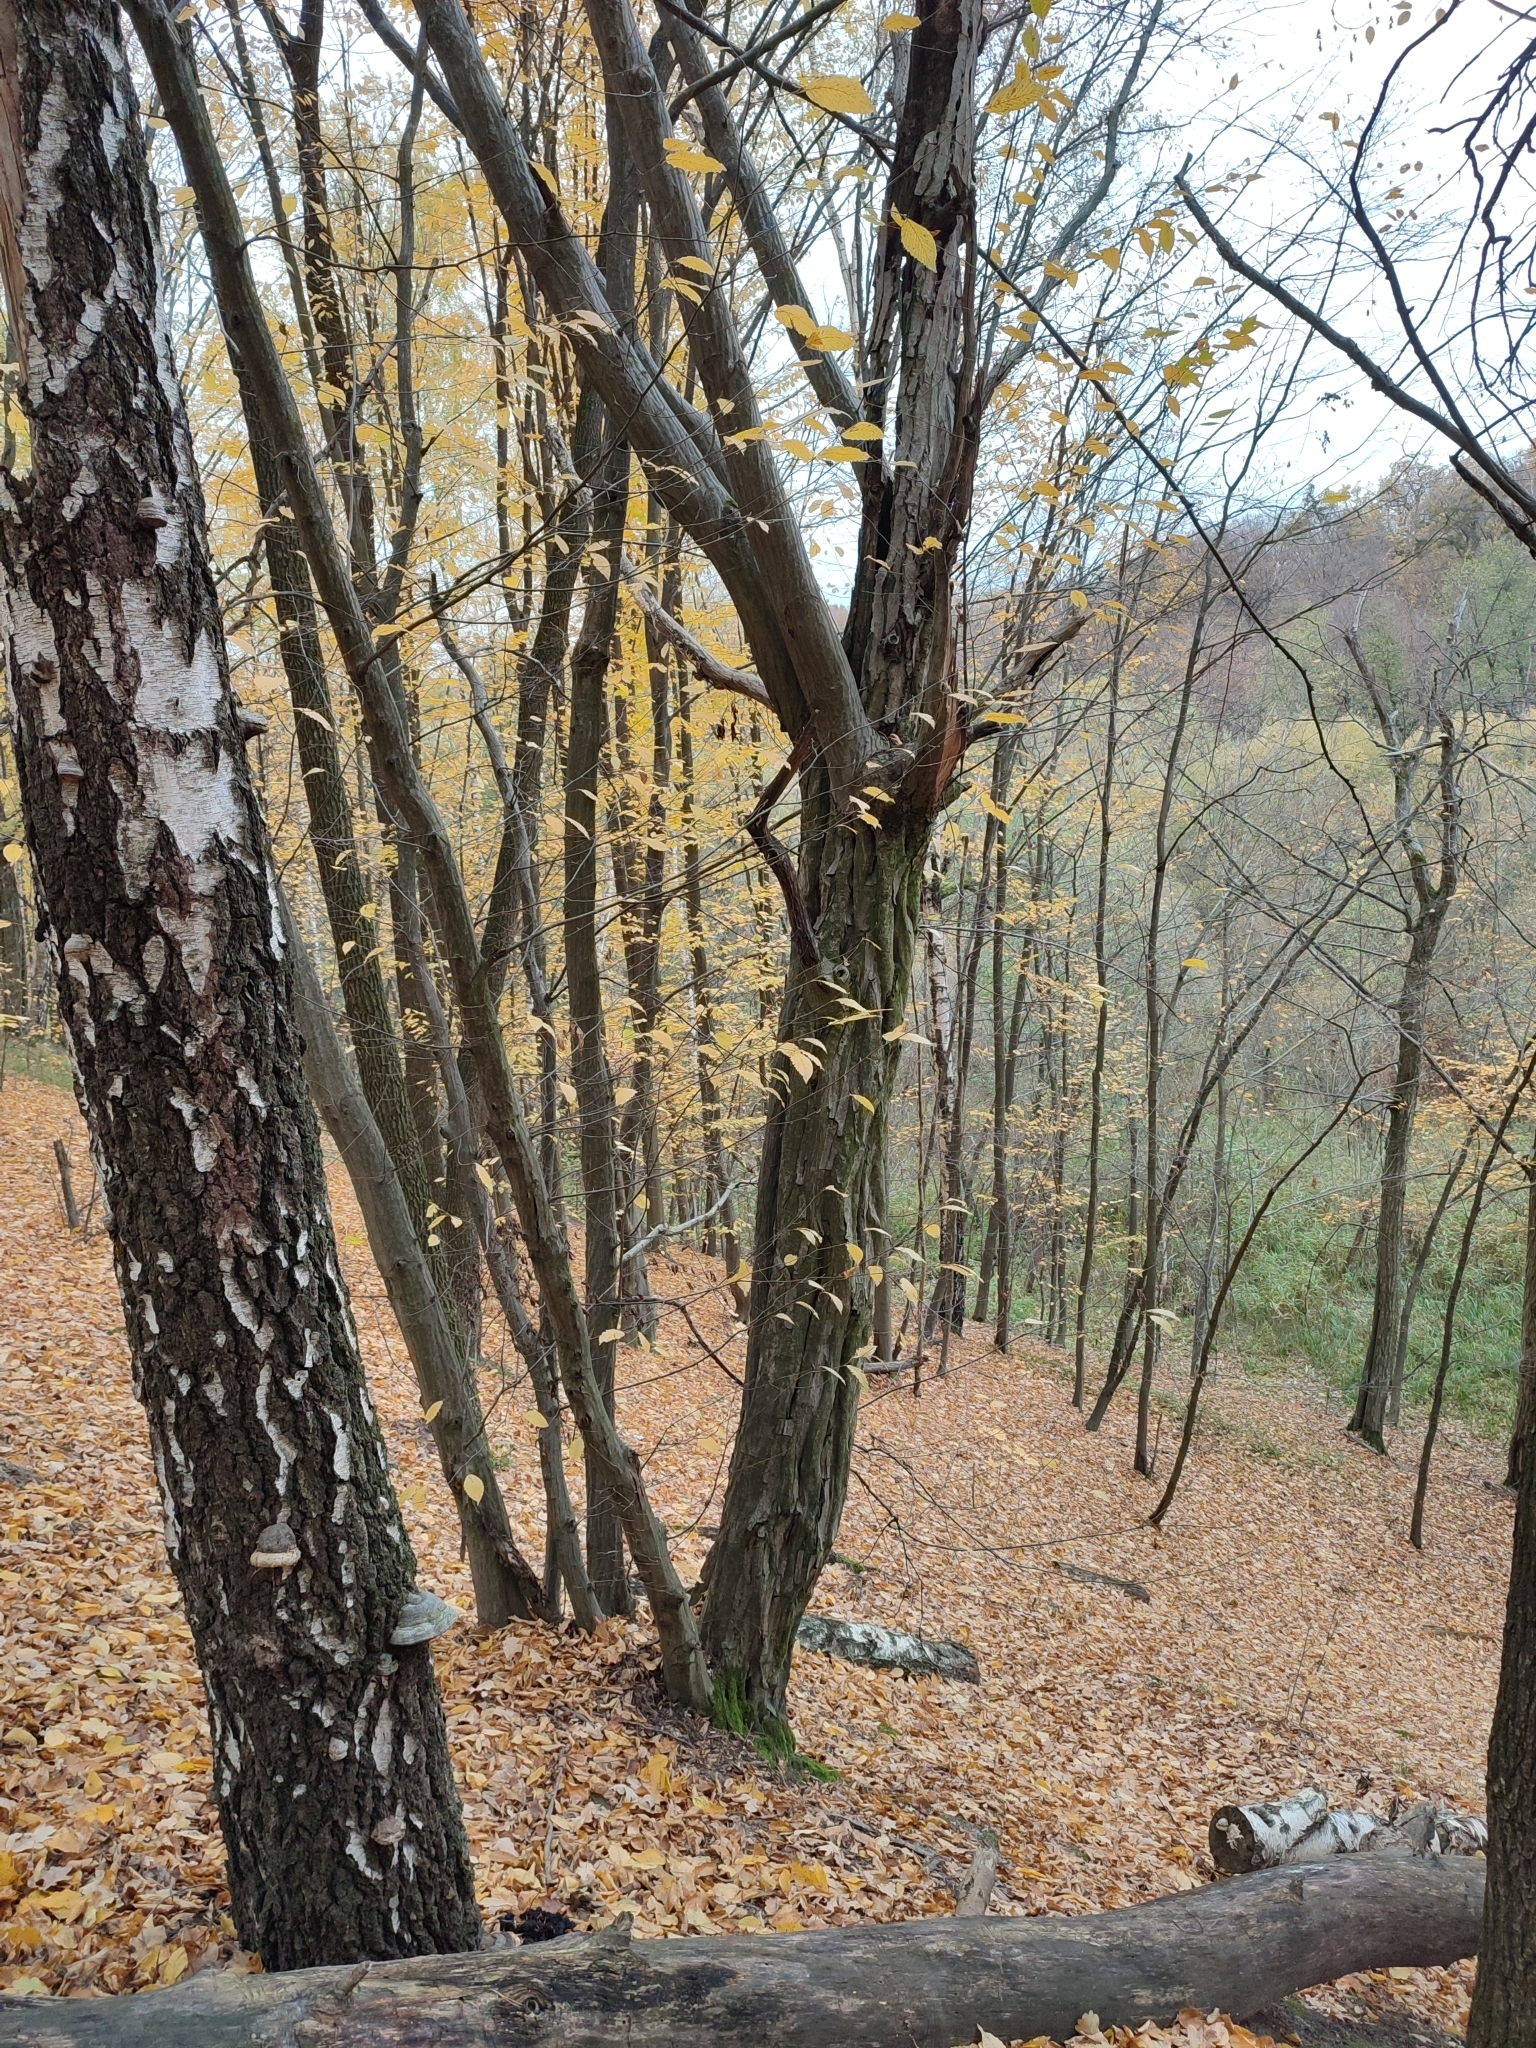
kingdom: Plantae
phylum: Tracheophyta
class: Magnoliopsida
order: Fagales
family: Betulaceae
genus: Carpinus
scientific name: Carpinus betulus
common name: Hornbeam
